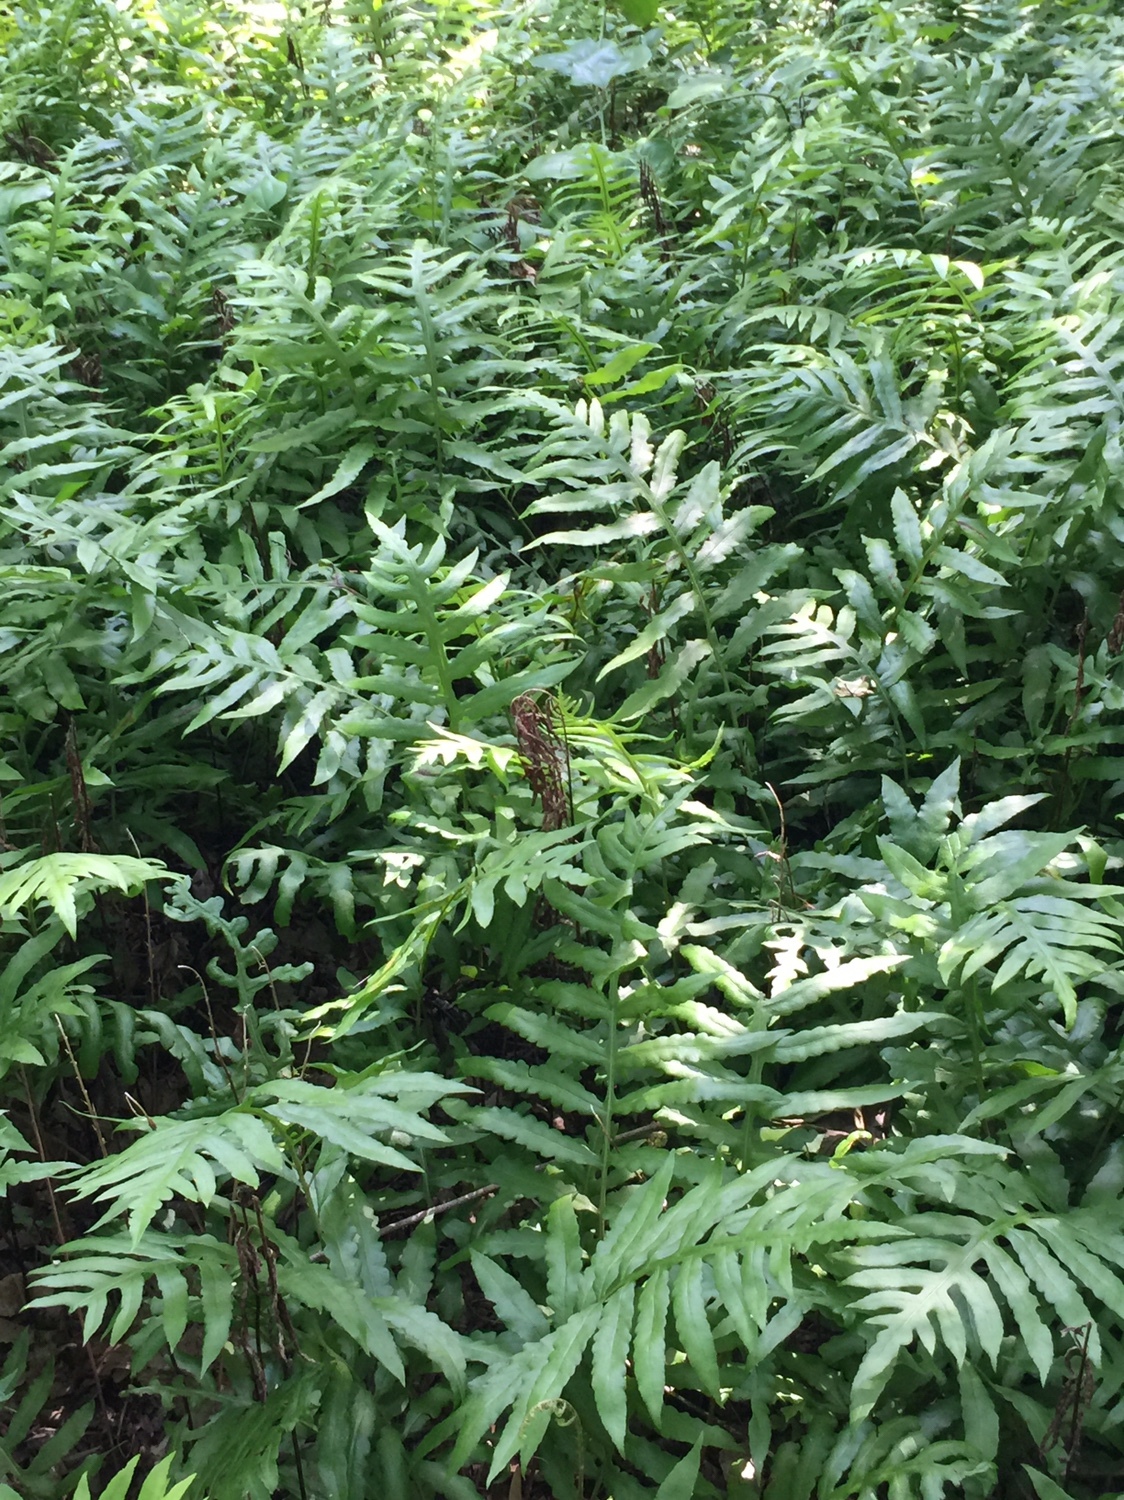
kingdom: Plantae
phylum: Tracheophyta
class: Polypodiopsida
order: Polypodiales
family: Blechnaceae
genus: Lorinseria
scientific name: Lorinseria areolata
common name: Dwarf chain fern
